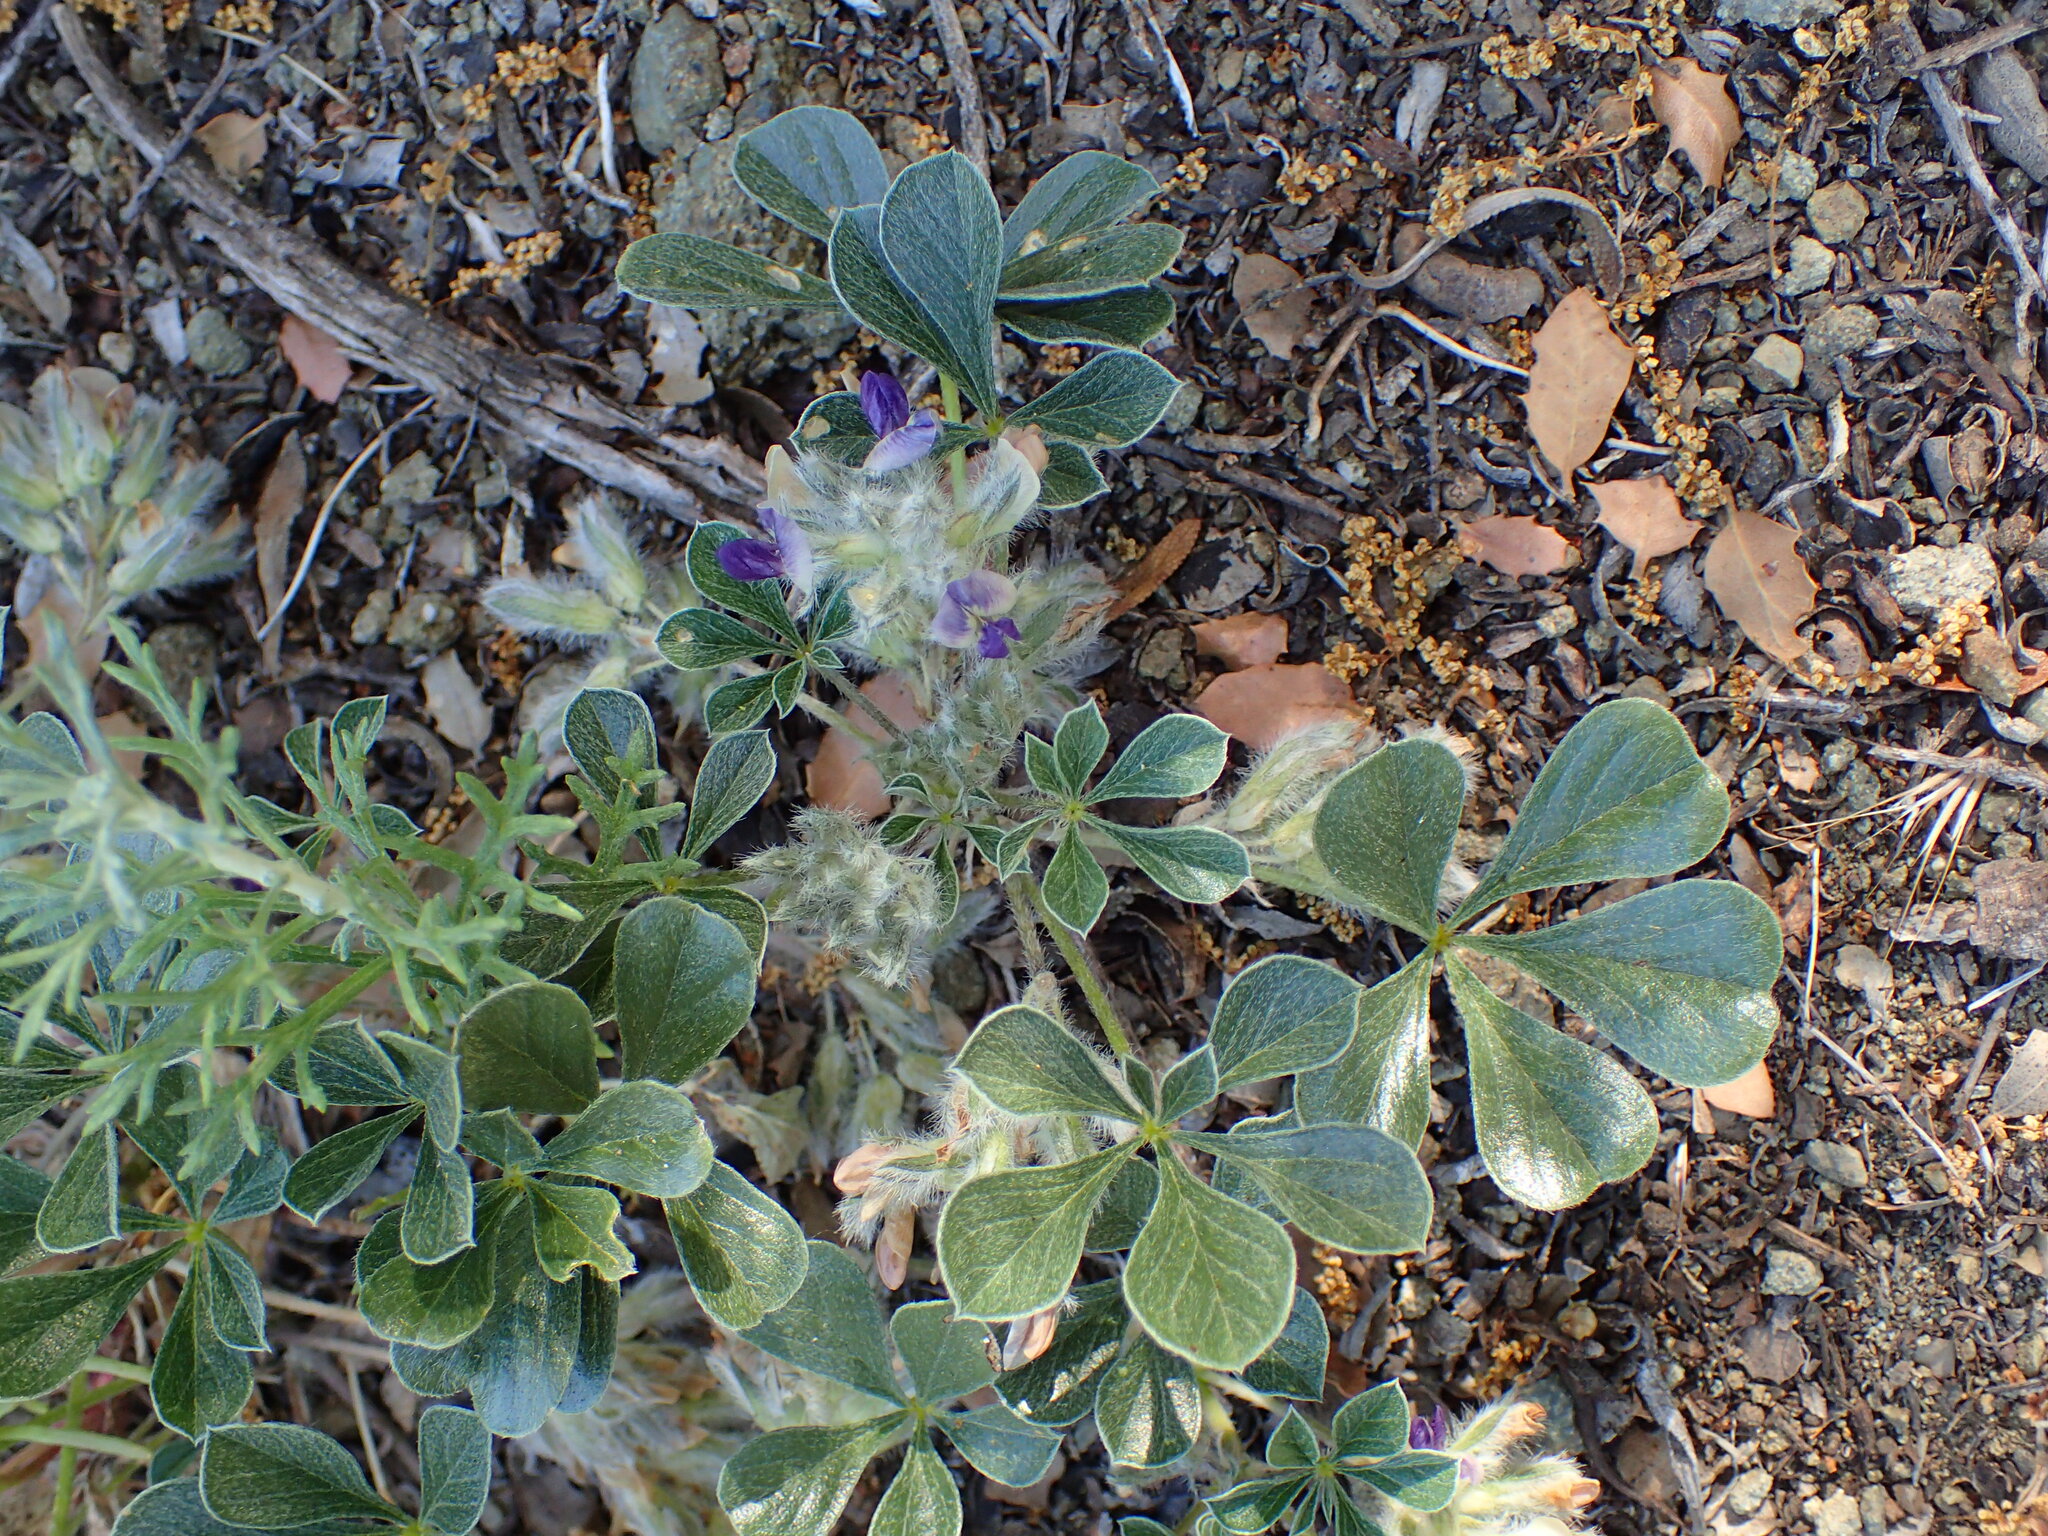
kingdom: Plantae
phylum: Tracheophyta
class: Magnoliopsida
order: Fabales
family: Fabaceae
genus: Pediomelum
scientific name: Pediomelum californicum
